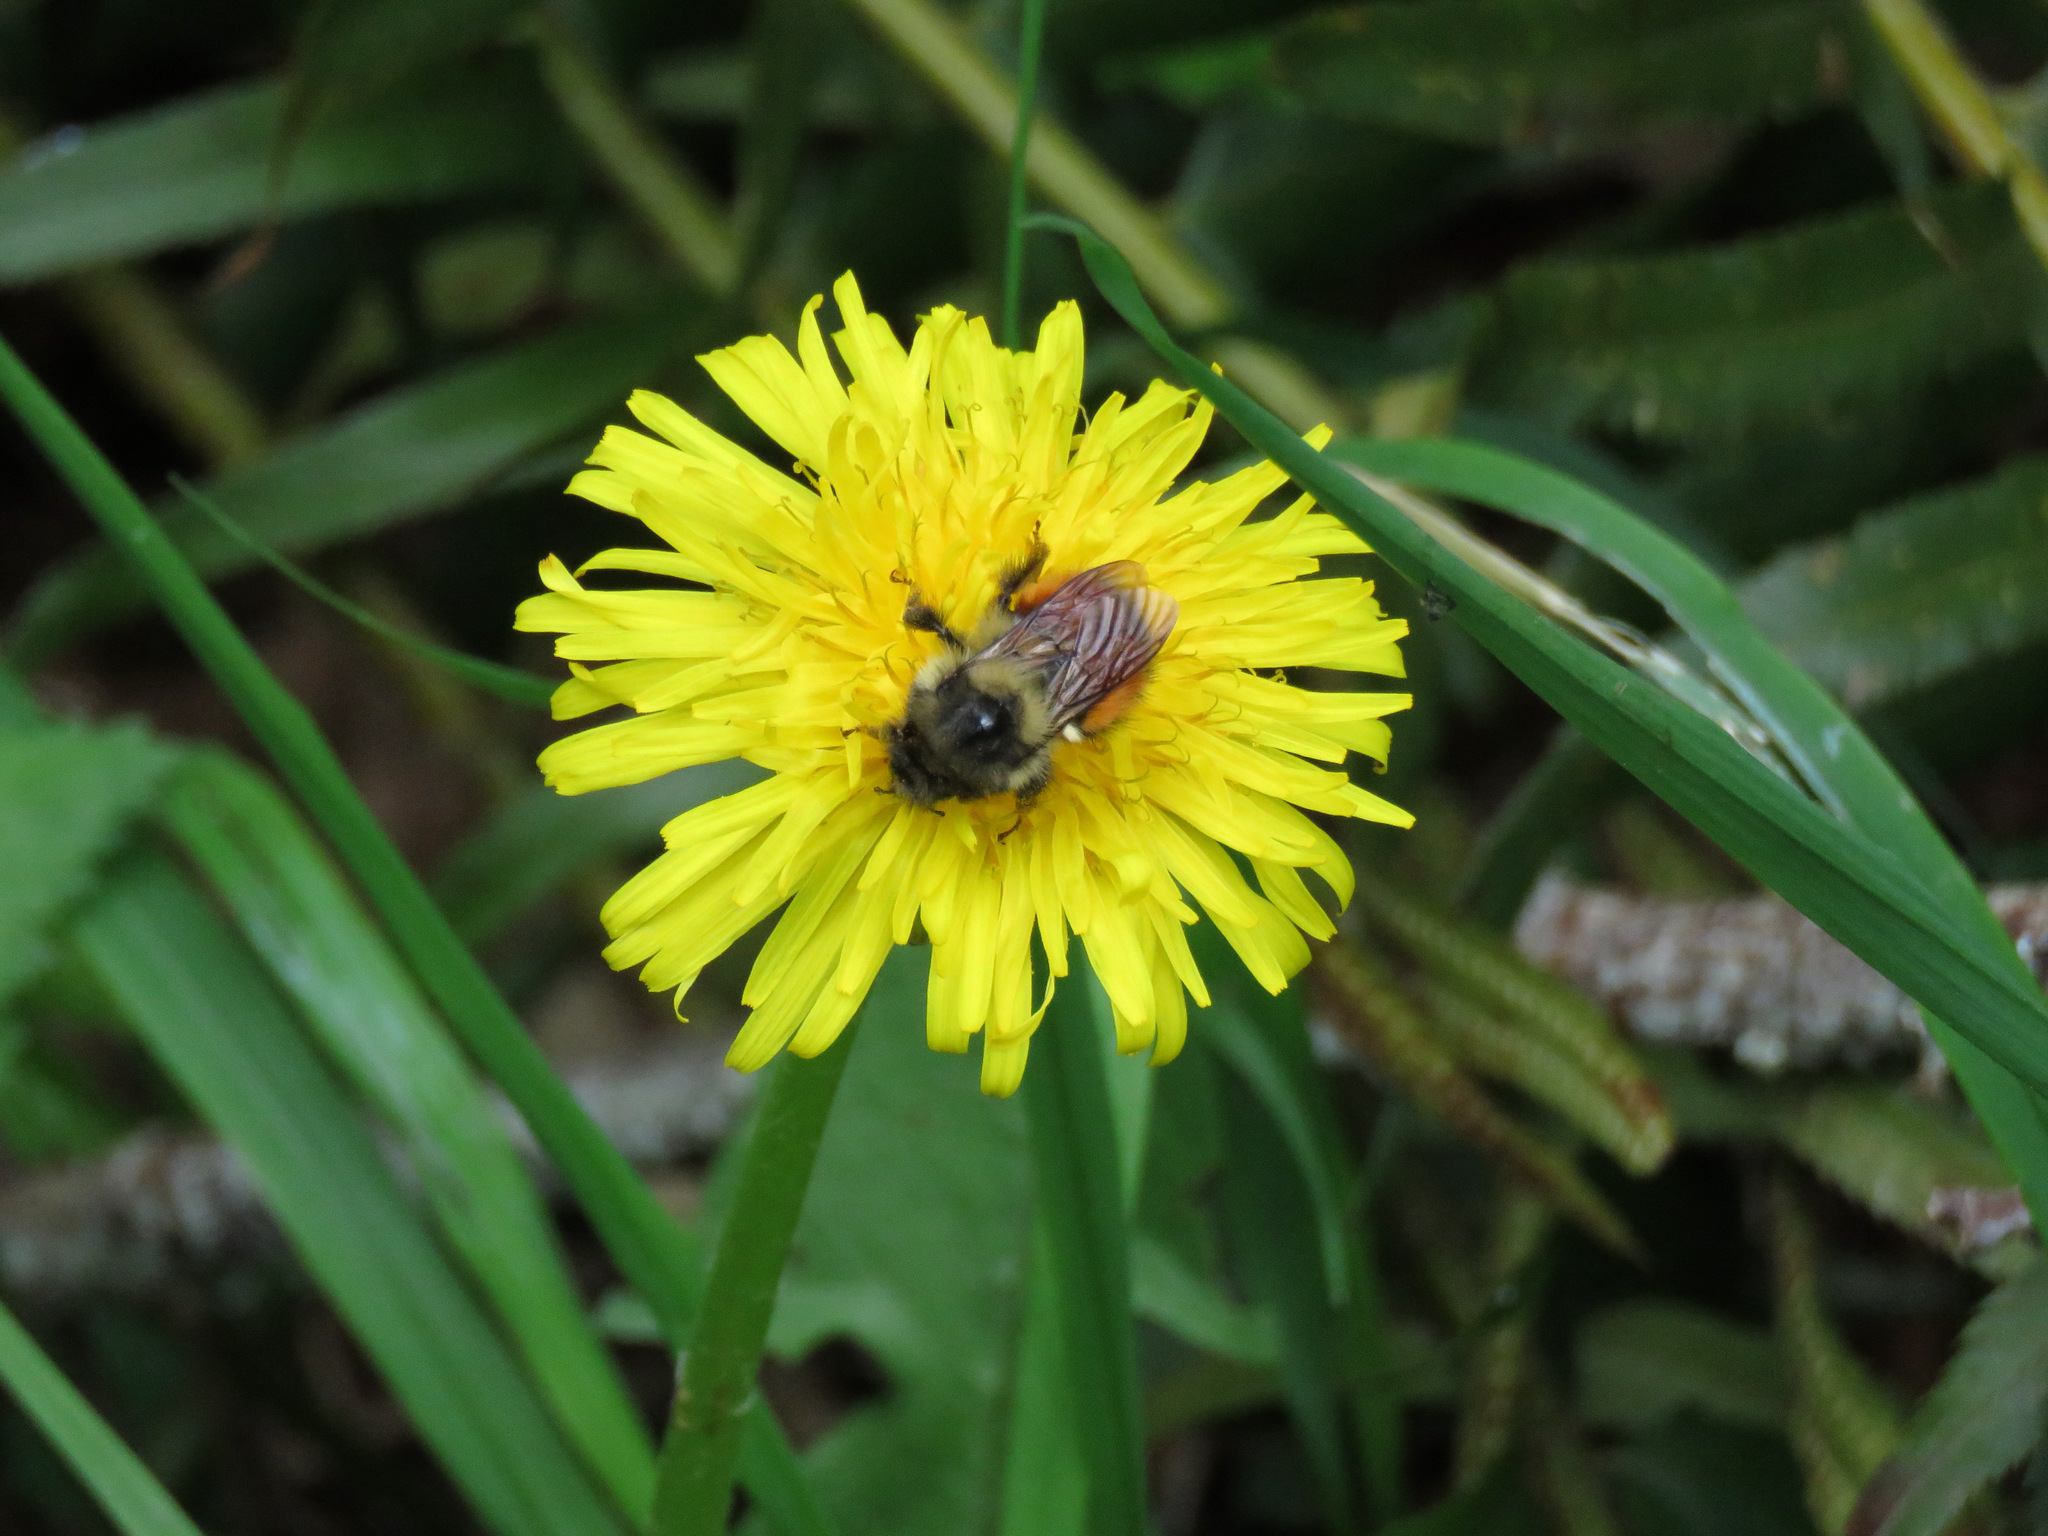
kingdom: Animalia
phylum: Arthropoda
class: Insecta
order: Hymenoptera
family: Apidae
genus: Bombus
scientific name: Bombus melanopygus
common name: Black tail bumble bee
